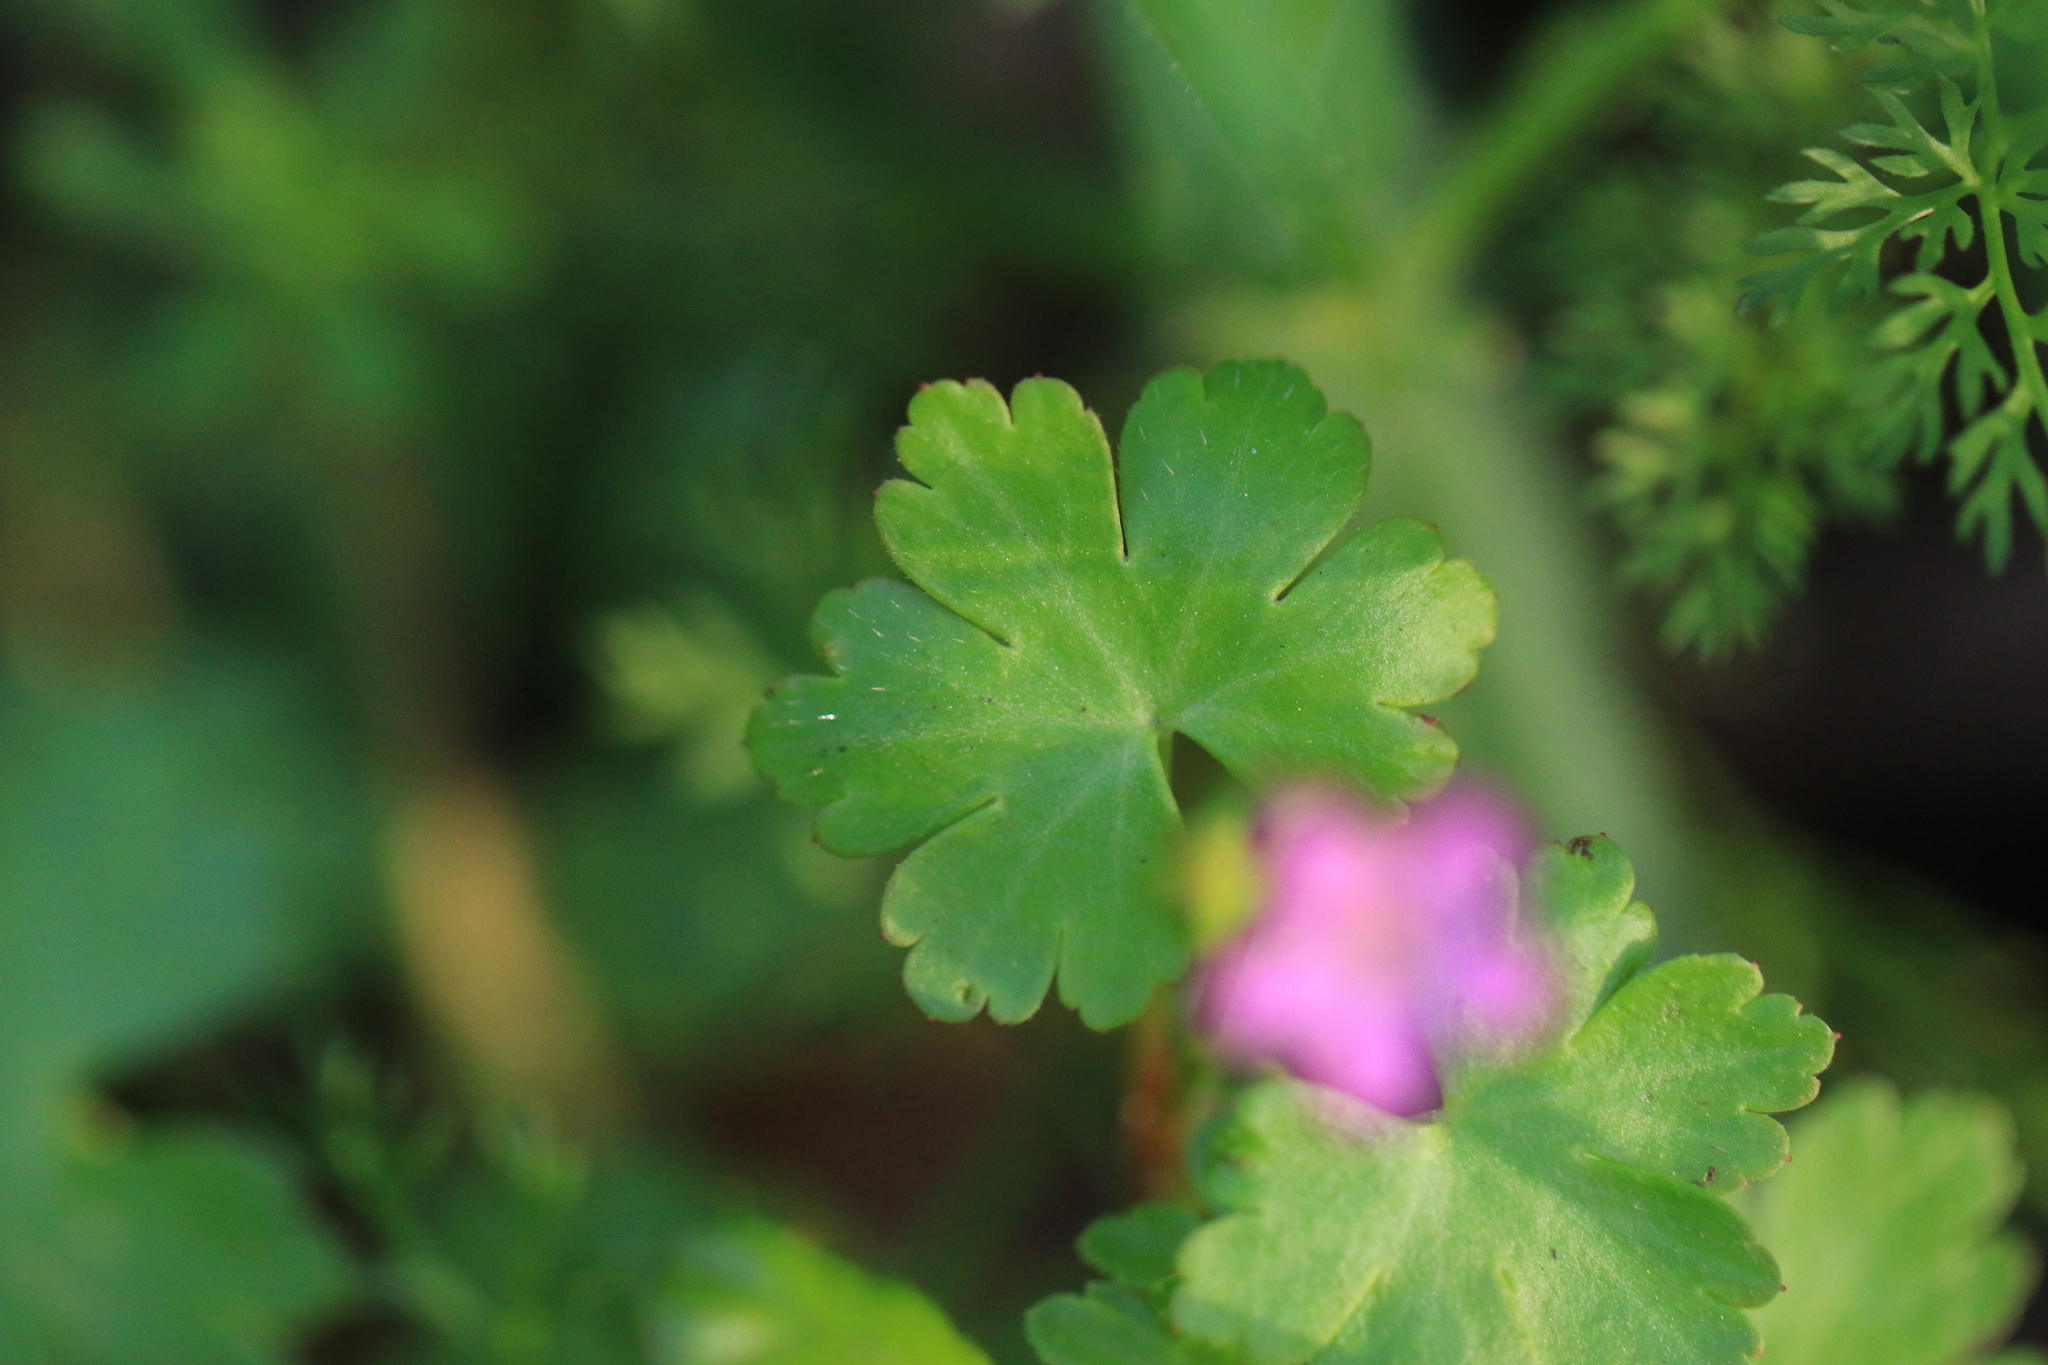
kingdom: Plantae
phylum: Tracheophyta
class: Magnoliopsida
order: Geraniales
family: Geraniaceae
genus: Geranium
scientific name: Geranium lucidum
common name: Shining crane's-bill
